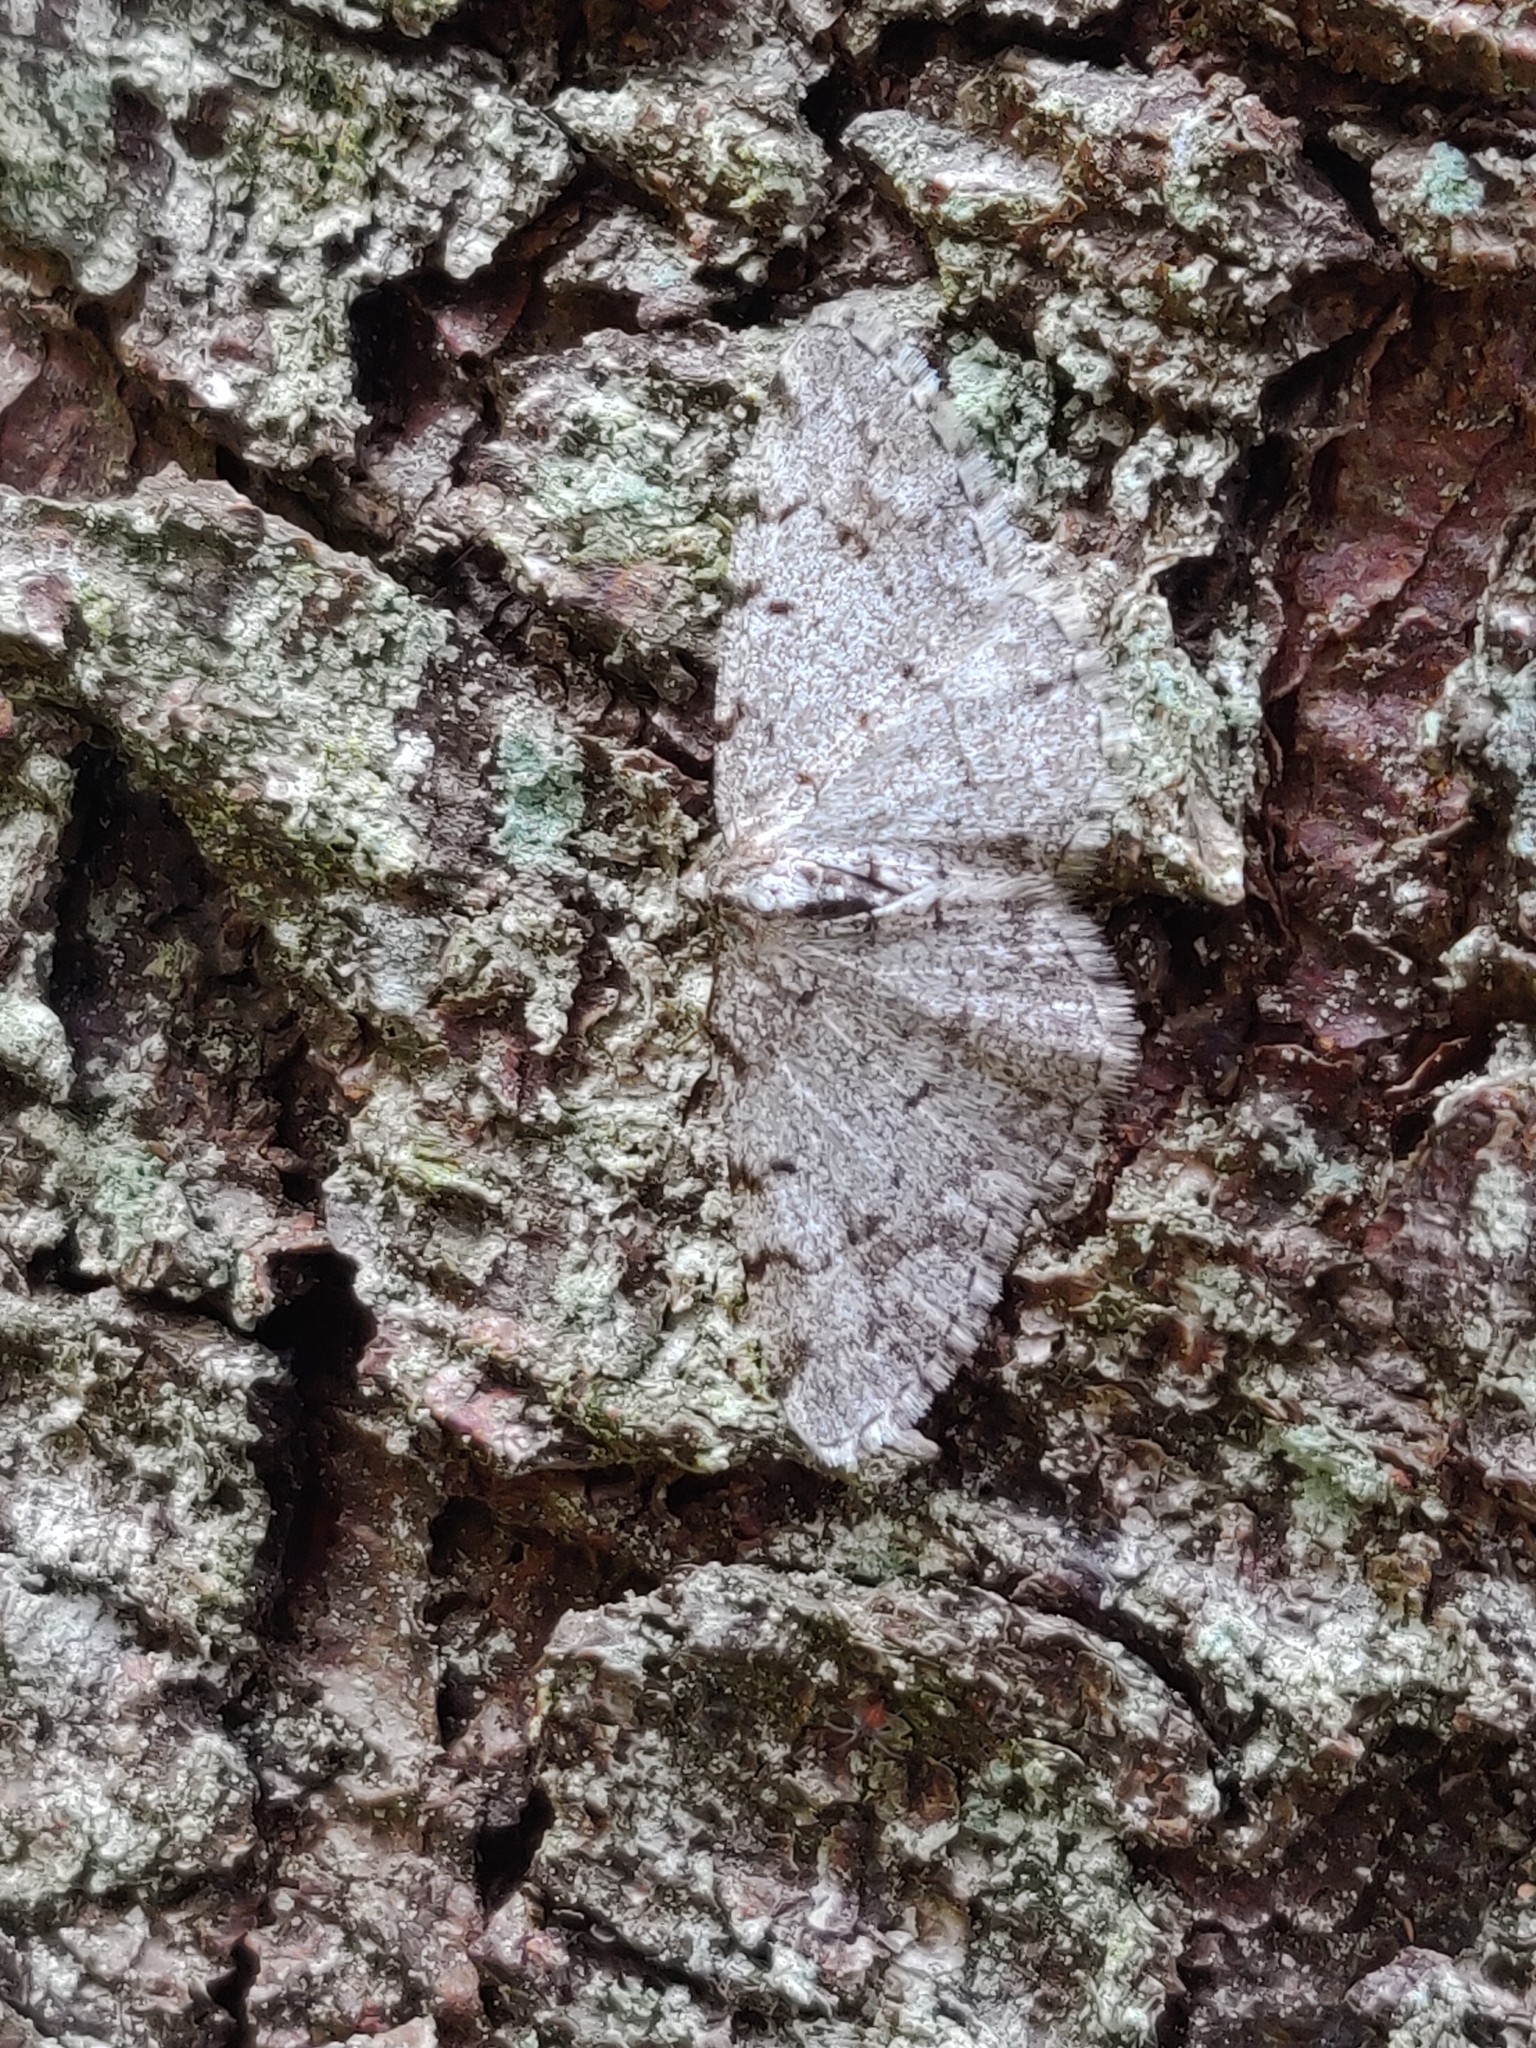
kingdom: Animalia
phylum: Arthropoda
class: Insecta
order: Lepidoptera
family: Geometridae
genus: Aethalura
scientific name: Aethalura punctulata
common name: Grey birch
